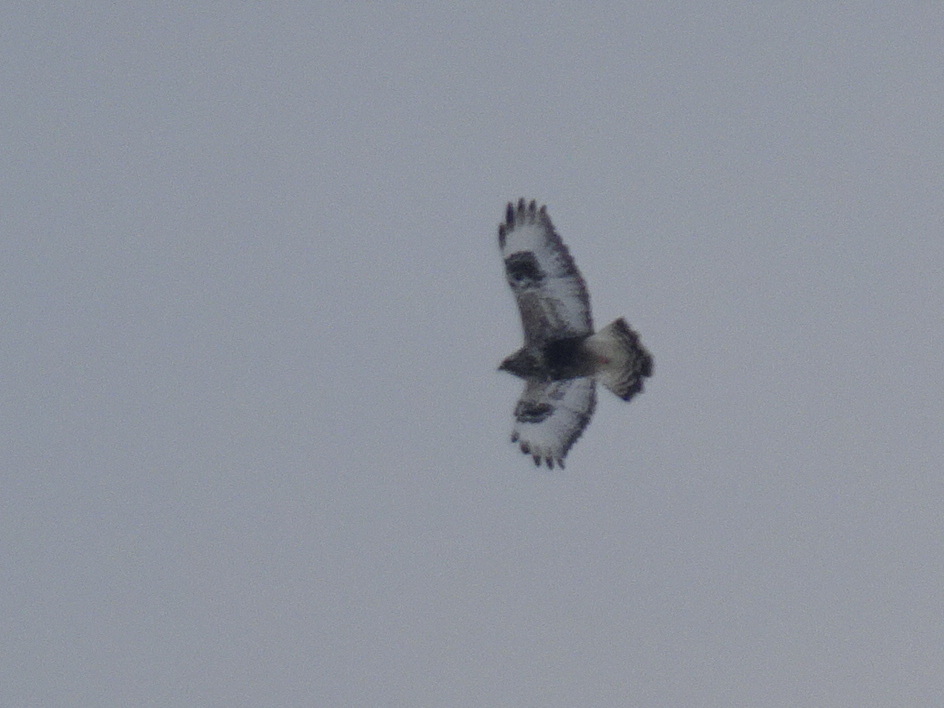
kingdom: Animalia
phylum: Chordata
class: Aves
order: Accipitriformes
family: Accipitridae
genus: Buteo
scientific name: Buteo lagopus
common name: Rough-legged buzzard
